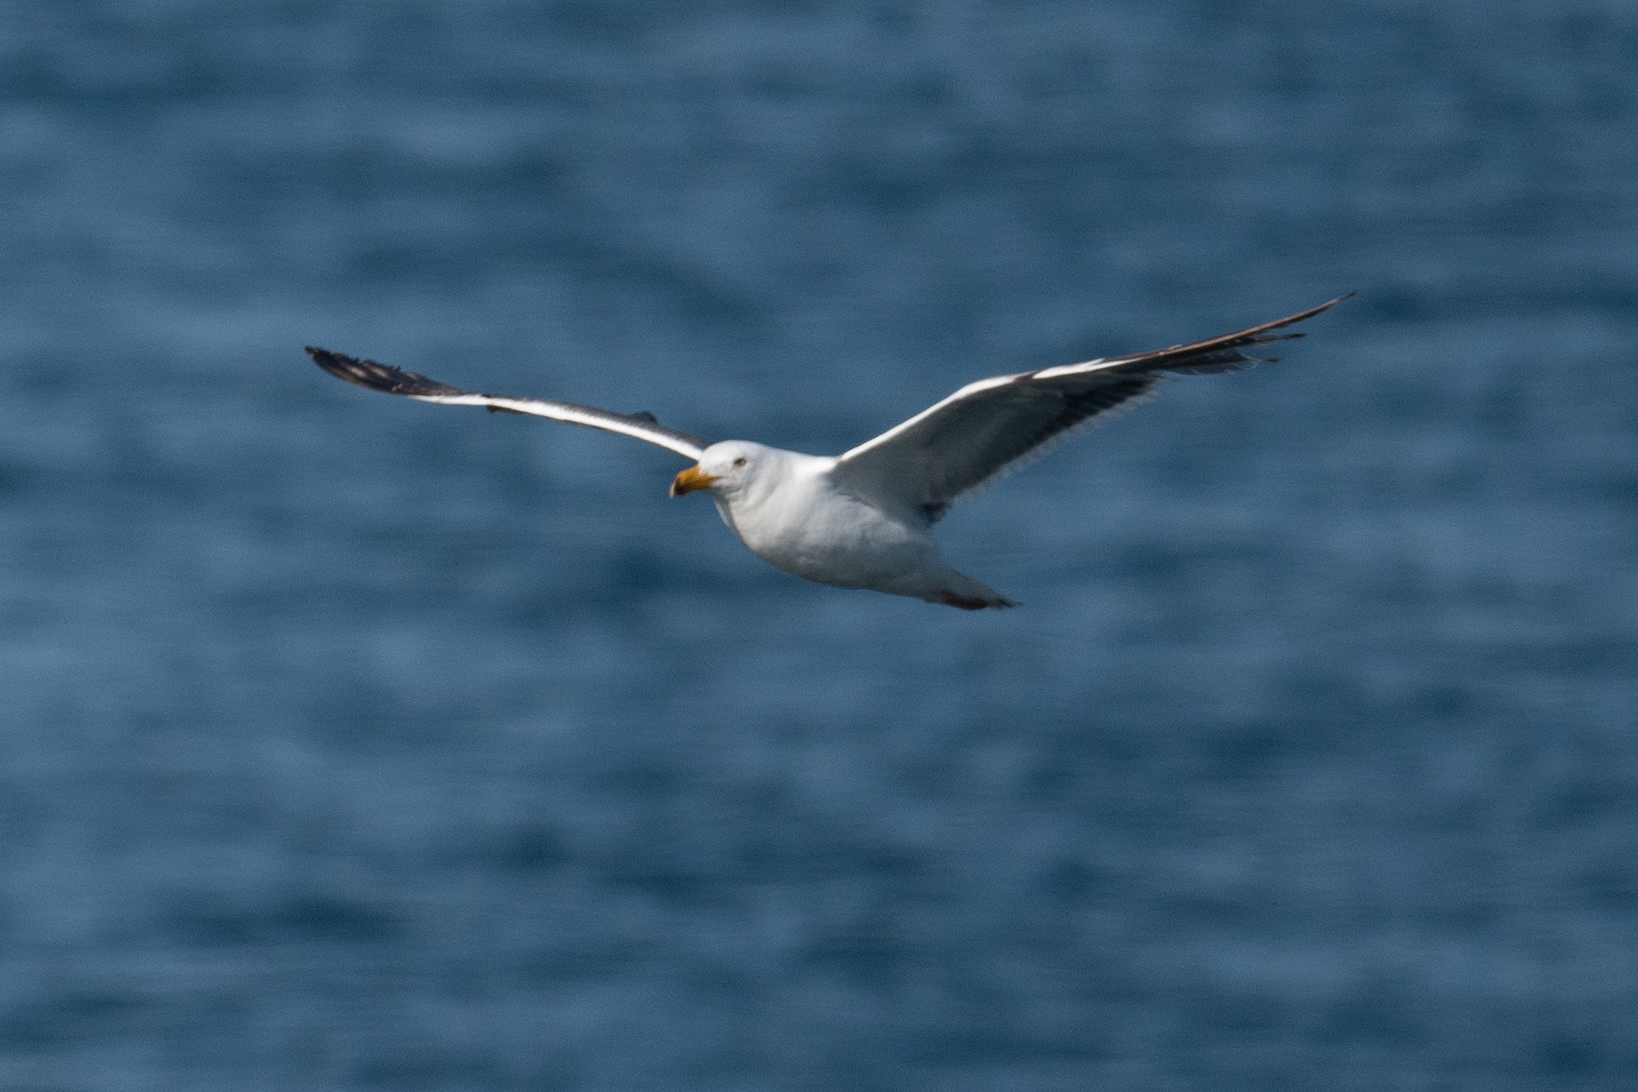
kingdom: Animalia
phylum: Chordata
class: Aves
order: Charadriiformes
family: Laridae
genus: Larus
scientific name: Larus occidentalis
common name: Western gull
